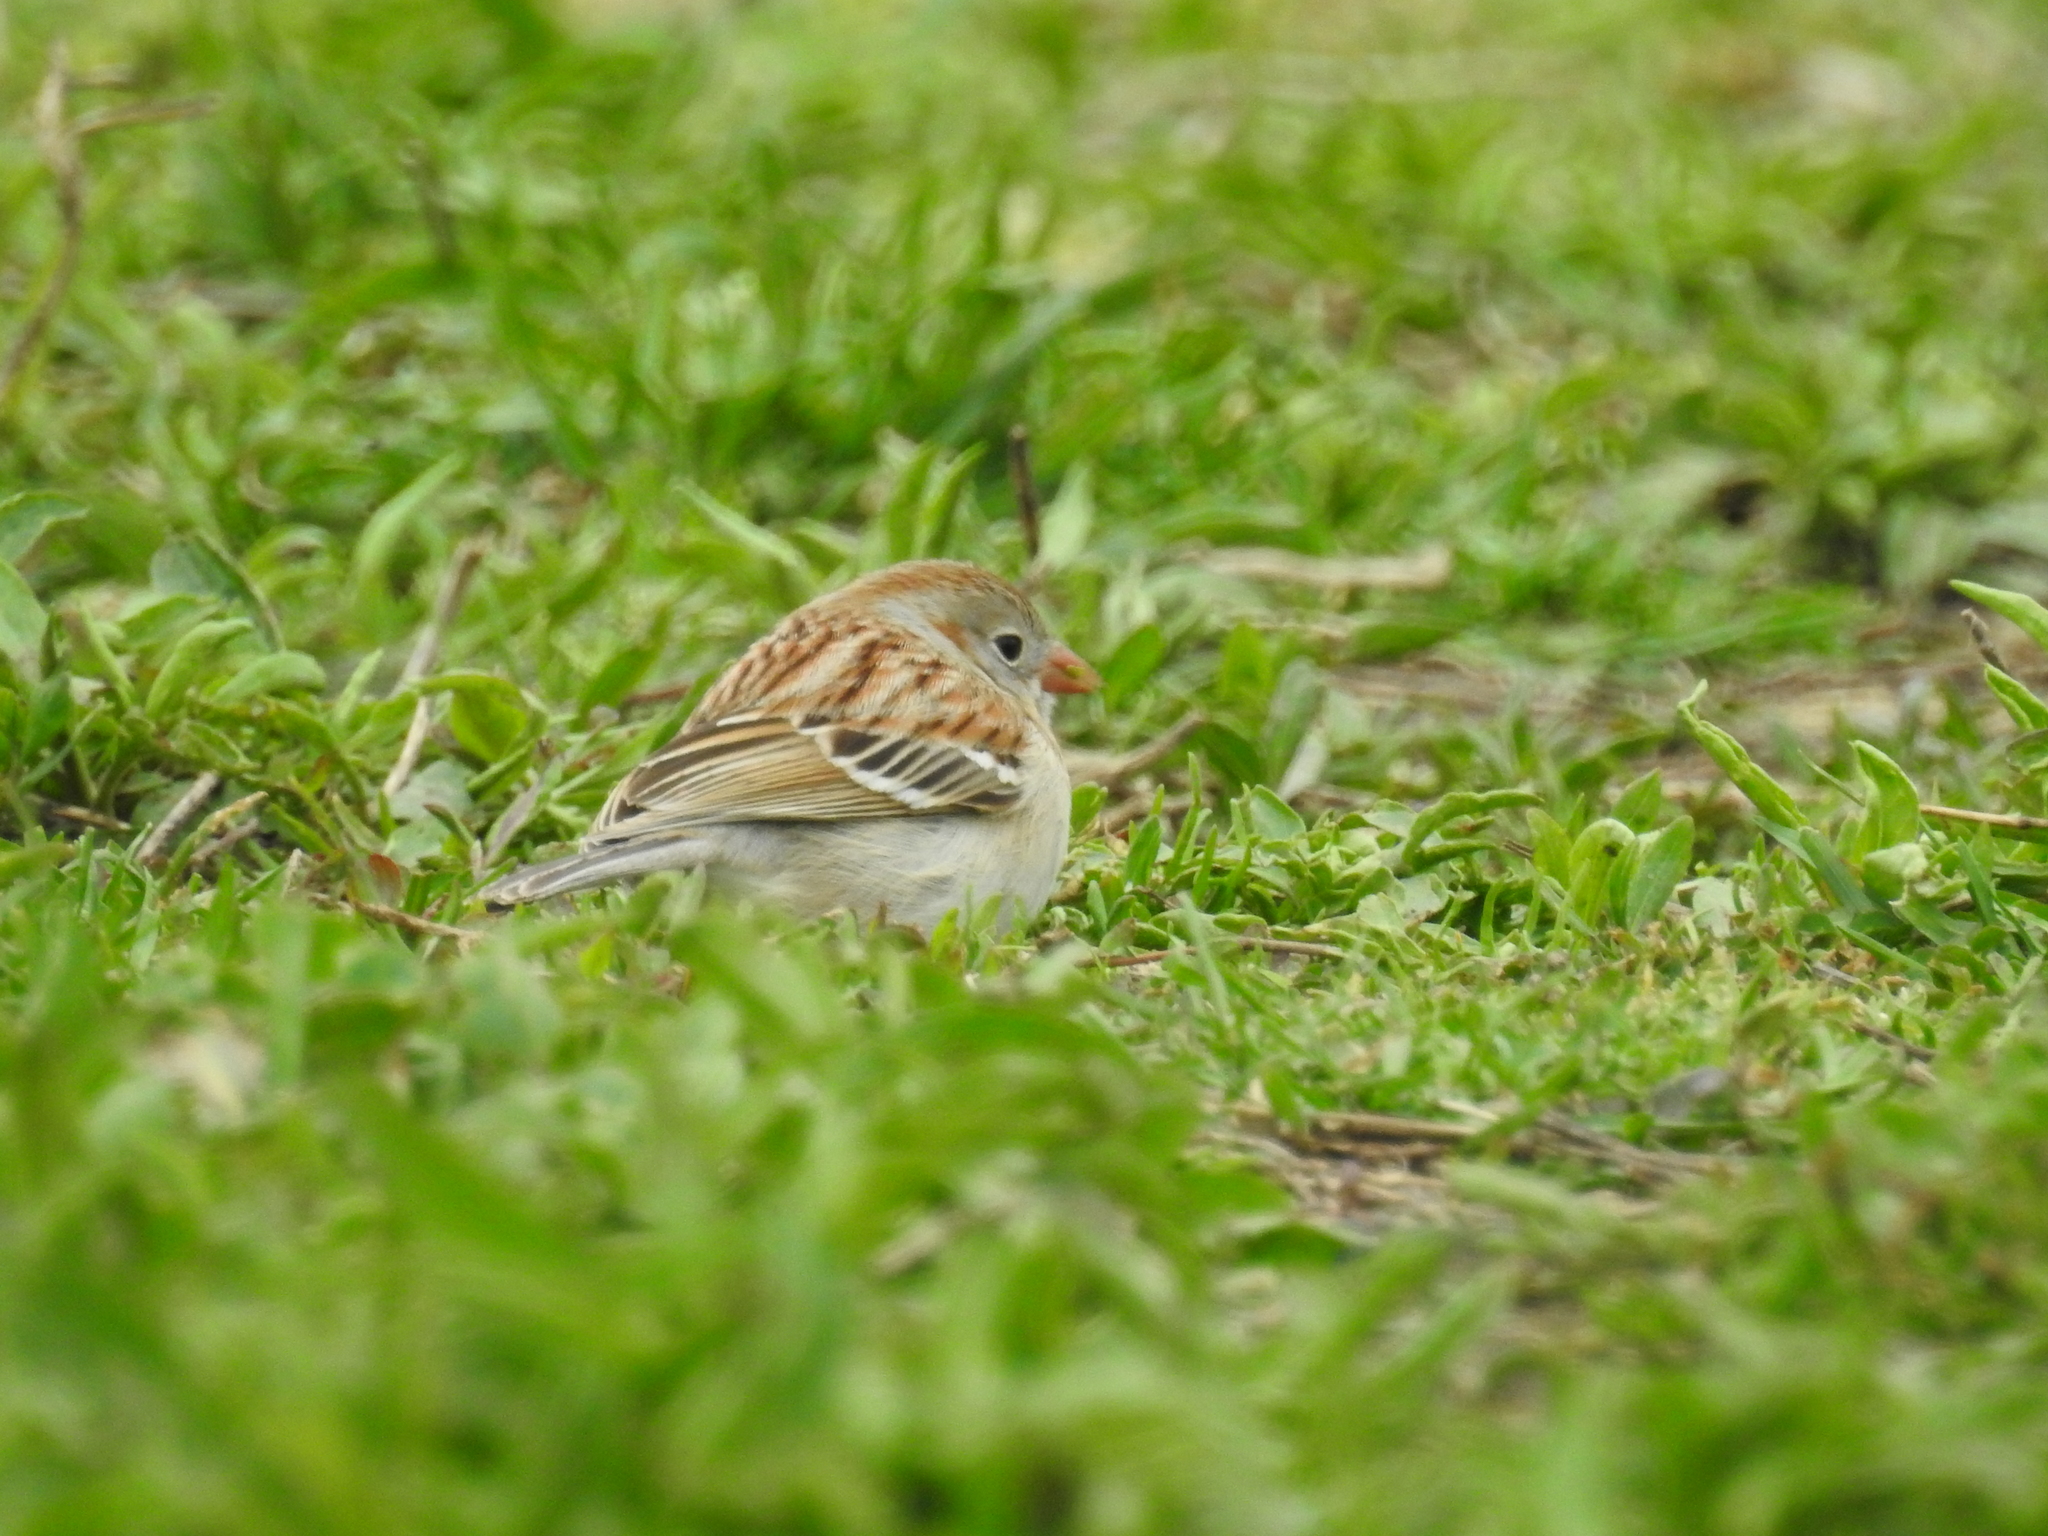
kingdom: Animalia
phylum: Chordata
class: Aves
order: Passeriformes
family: Passerellidae
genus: Spizella
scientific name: Spizella pusilla
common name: Field sparrow
